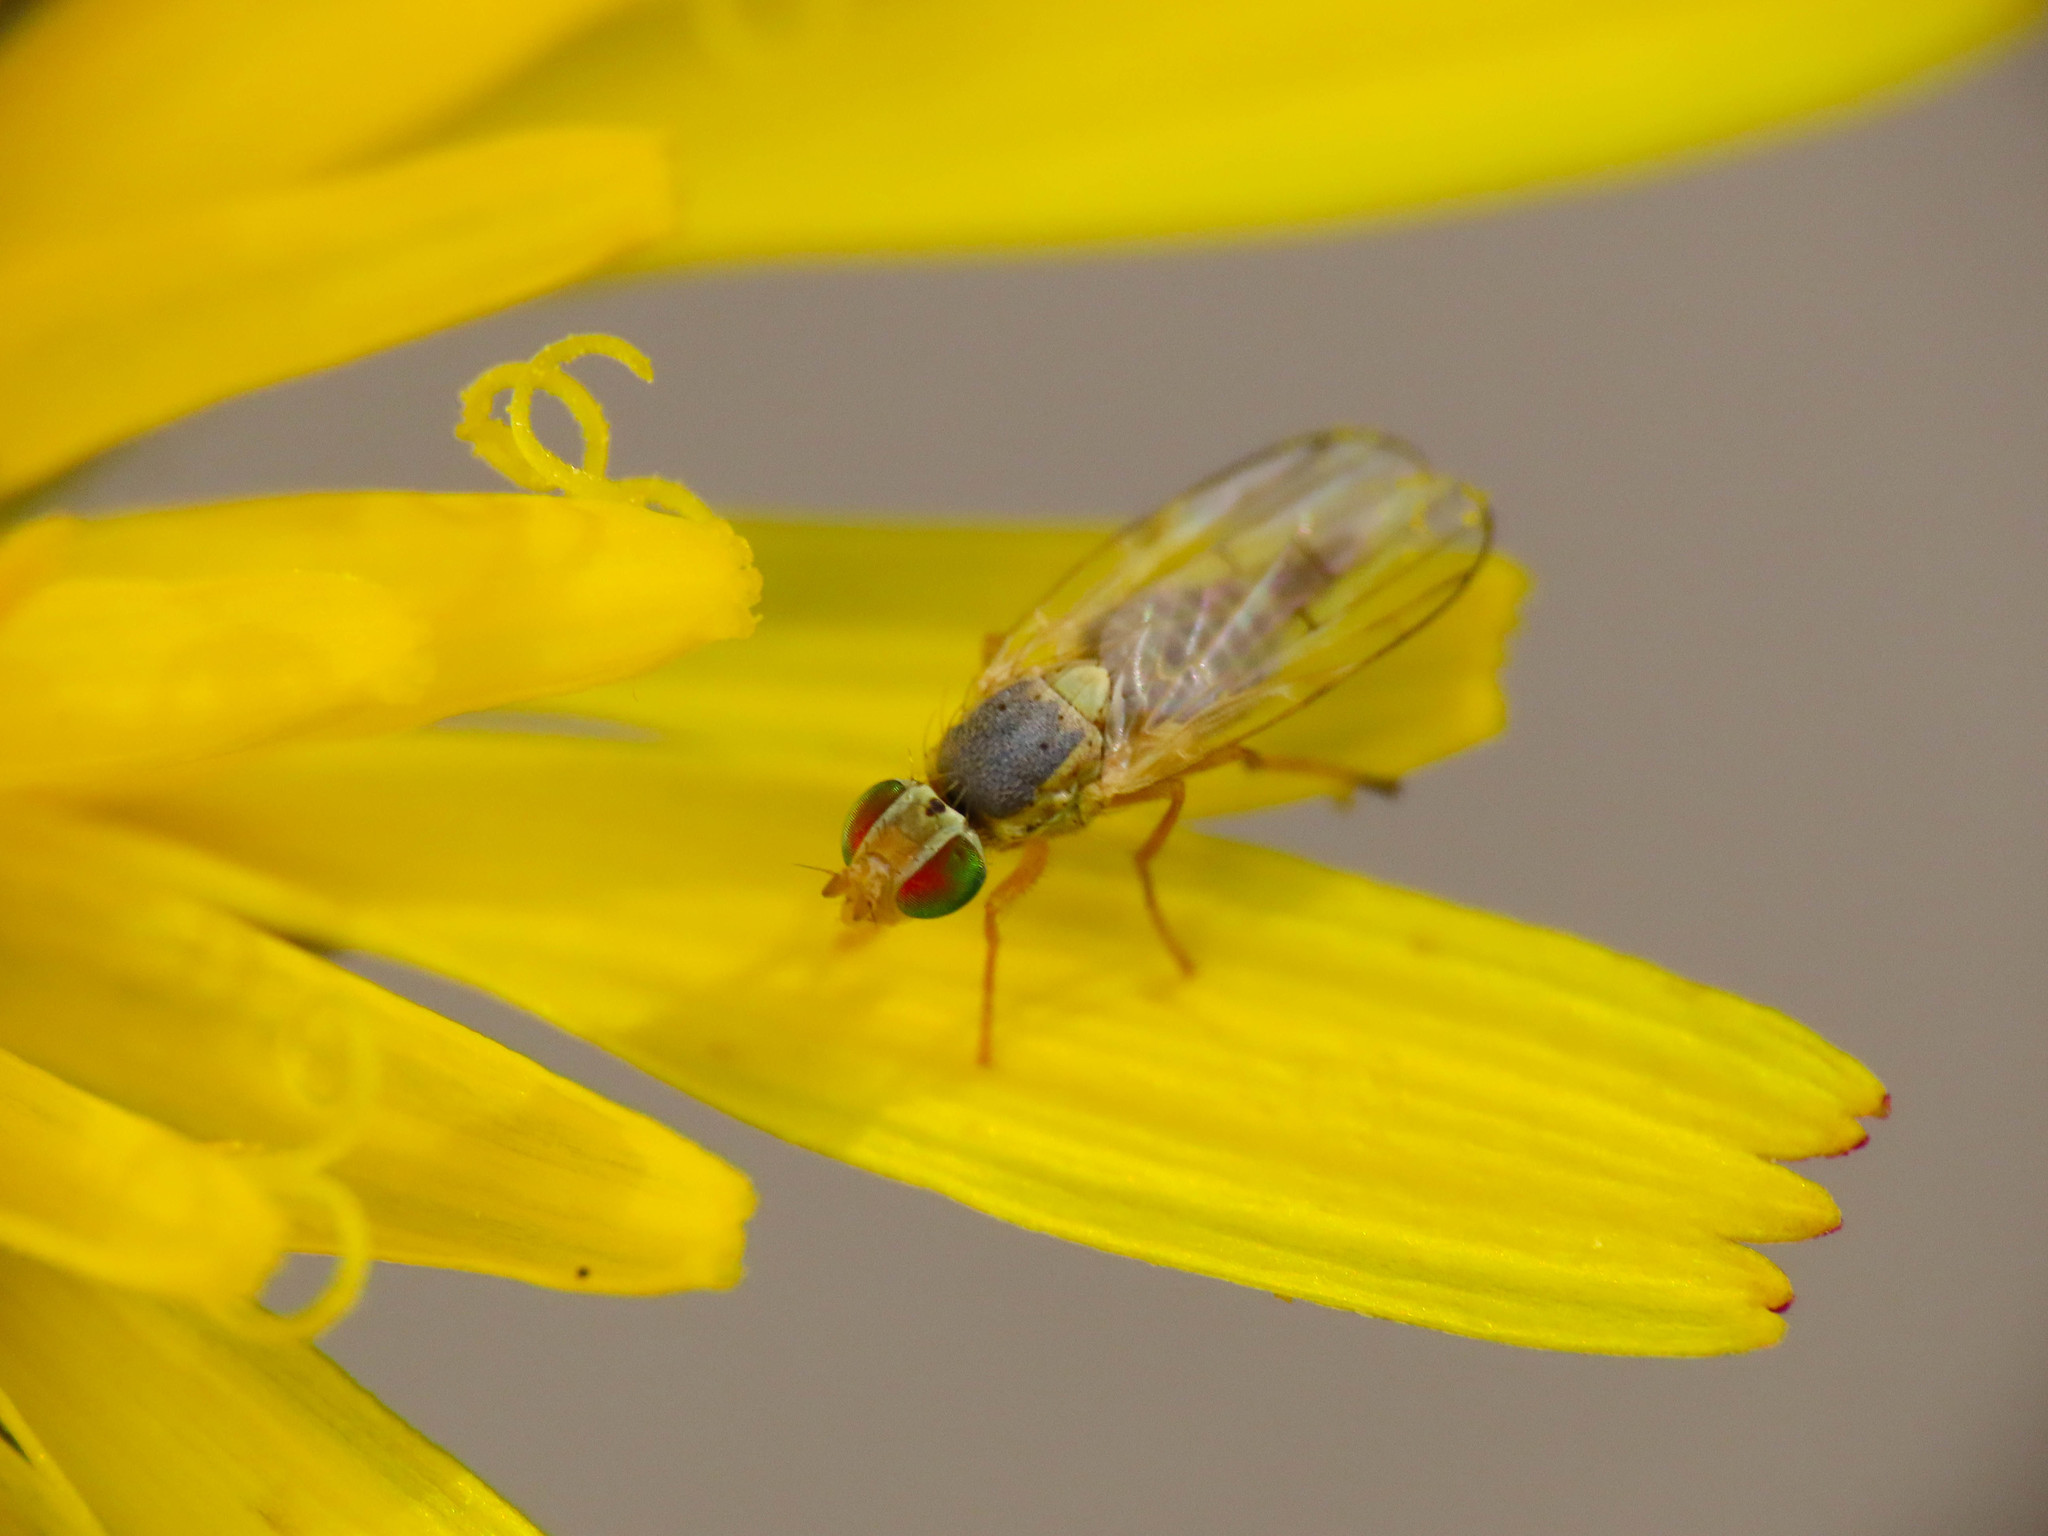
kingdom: Animalia
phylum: Arthropoda
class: Insecta
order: Diptera
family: Tephritidae
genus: Ensina
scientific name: Ensina sonchi
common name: Sonchus fly
